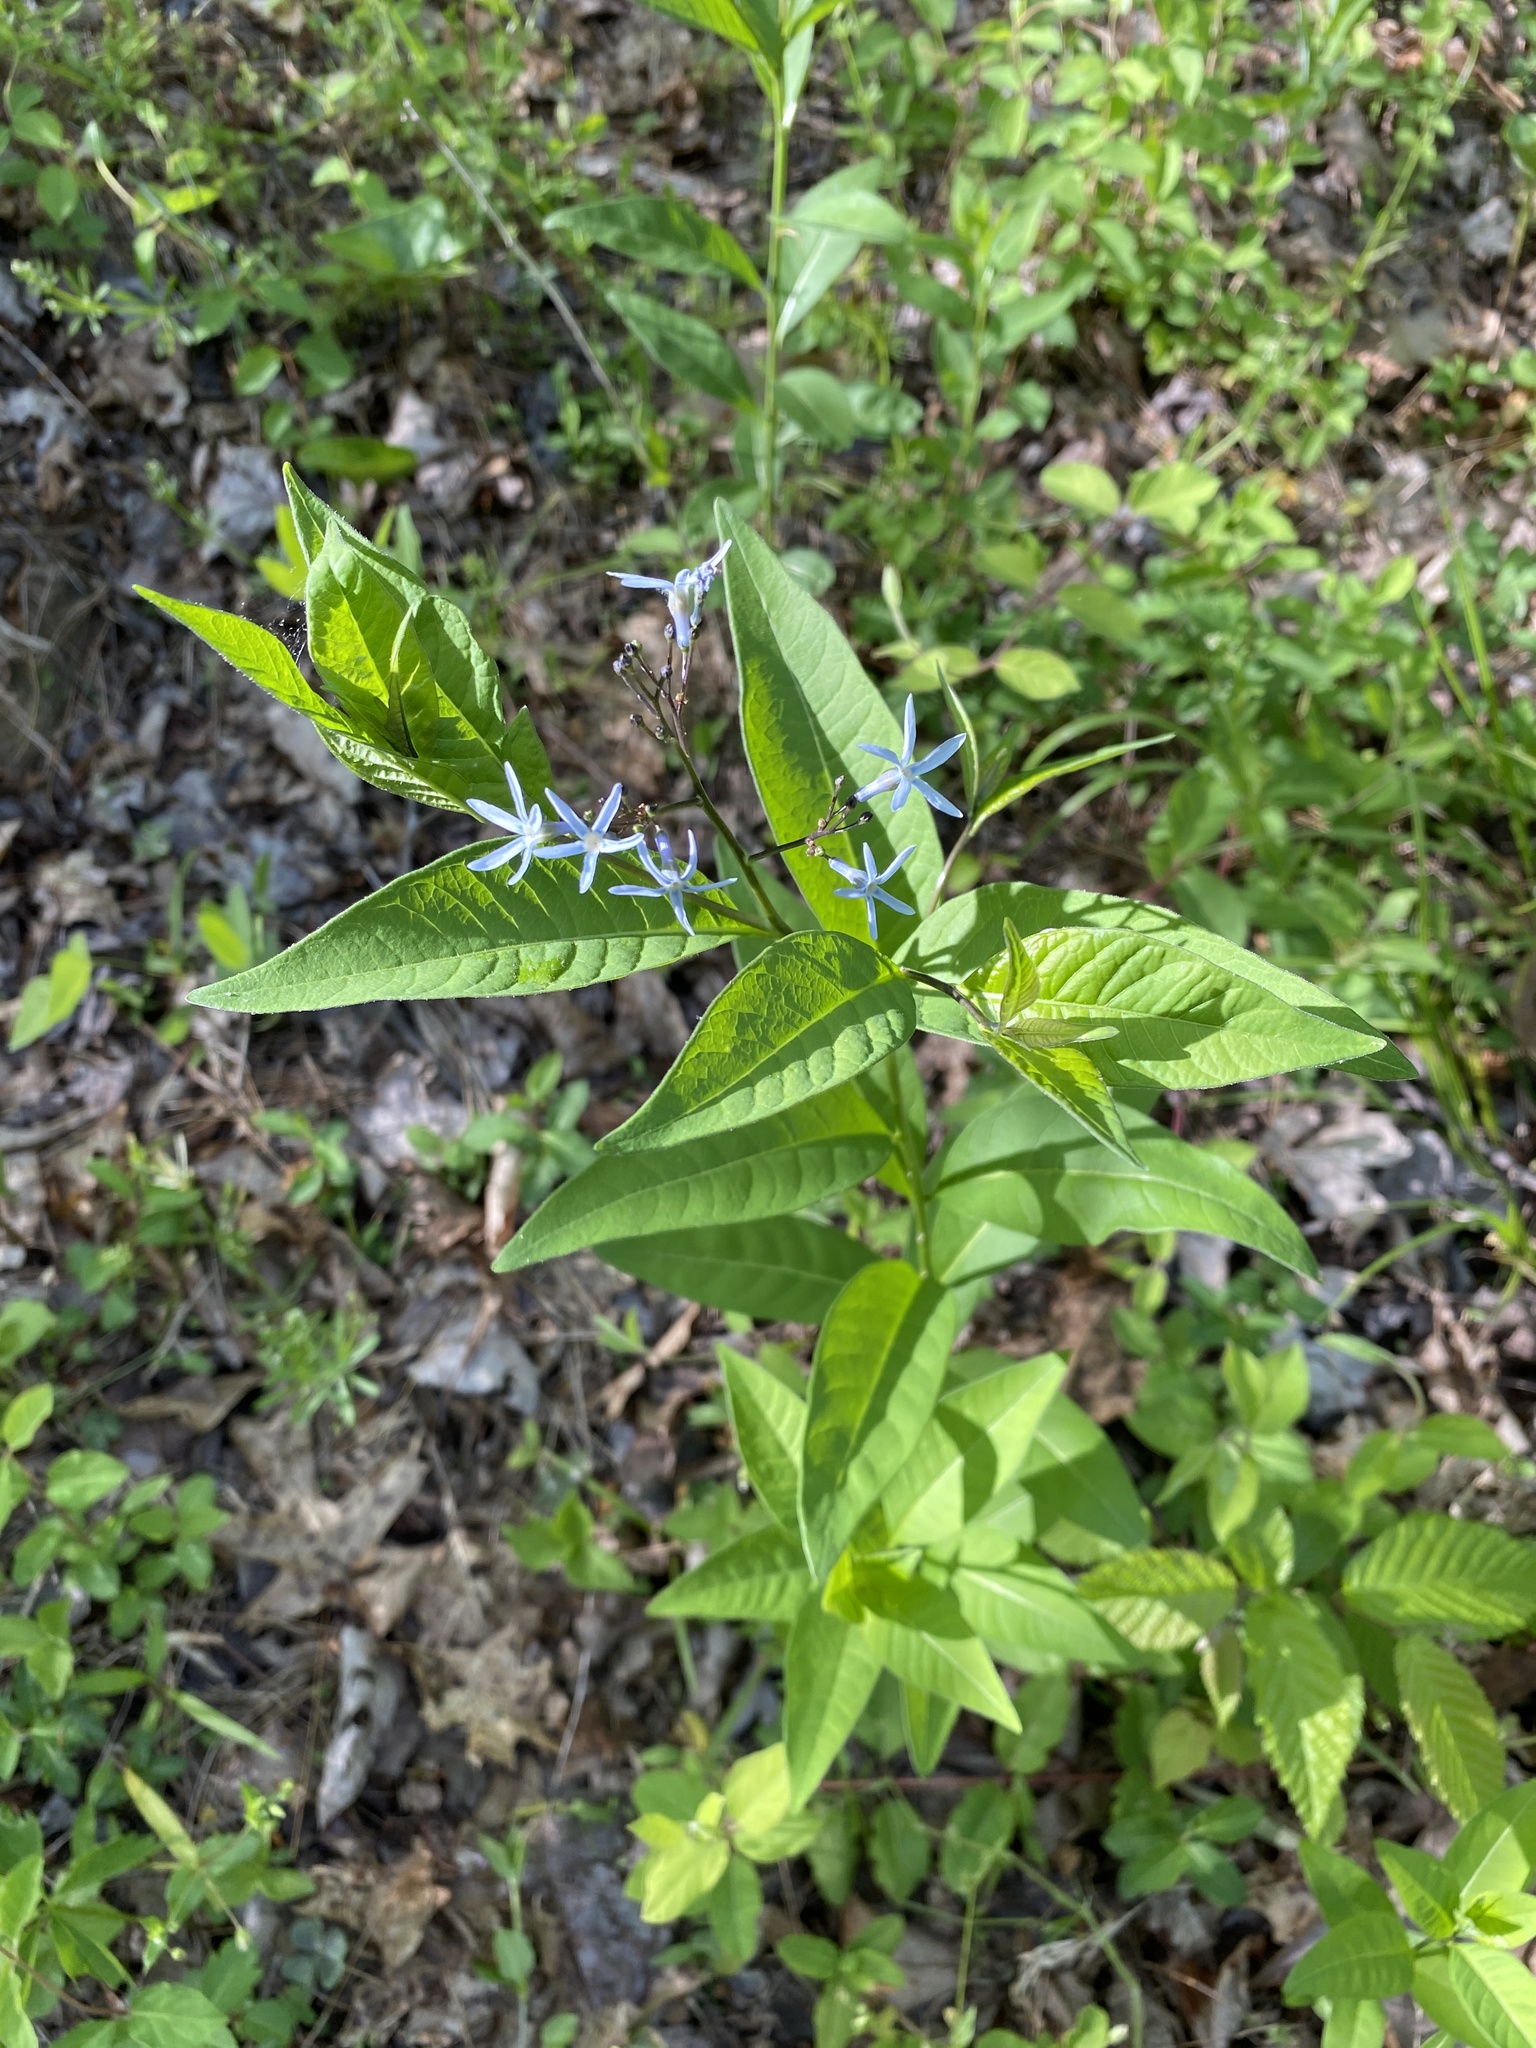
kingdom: Plantae
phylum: Tracheophyta
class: Magnoliopsida
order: Gentianales
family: Apocynaceae
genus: Amsonia
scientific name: Amsonia tabernaemontana
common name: Texas-star
